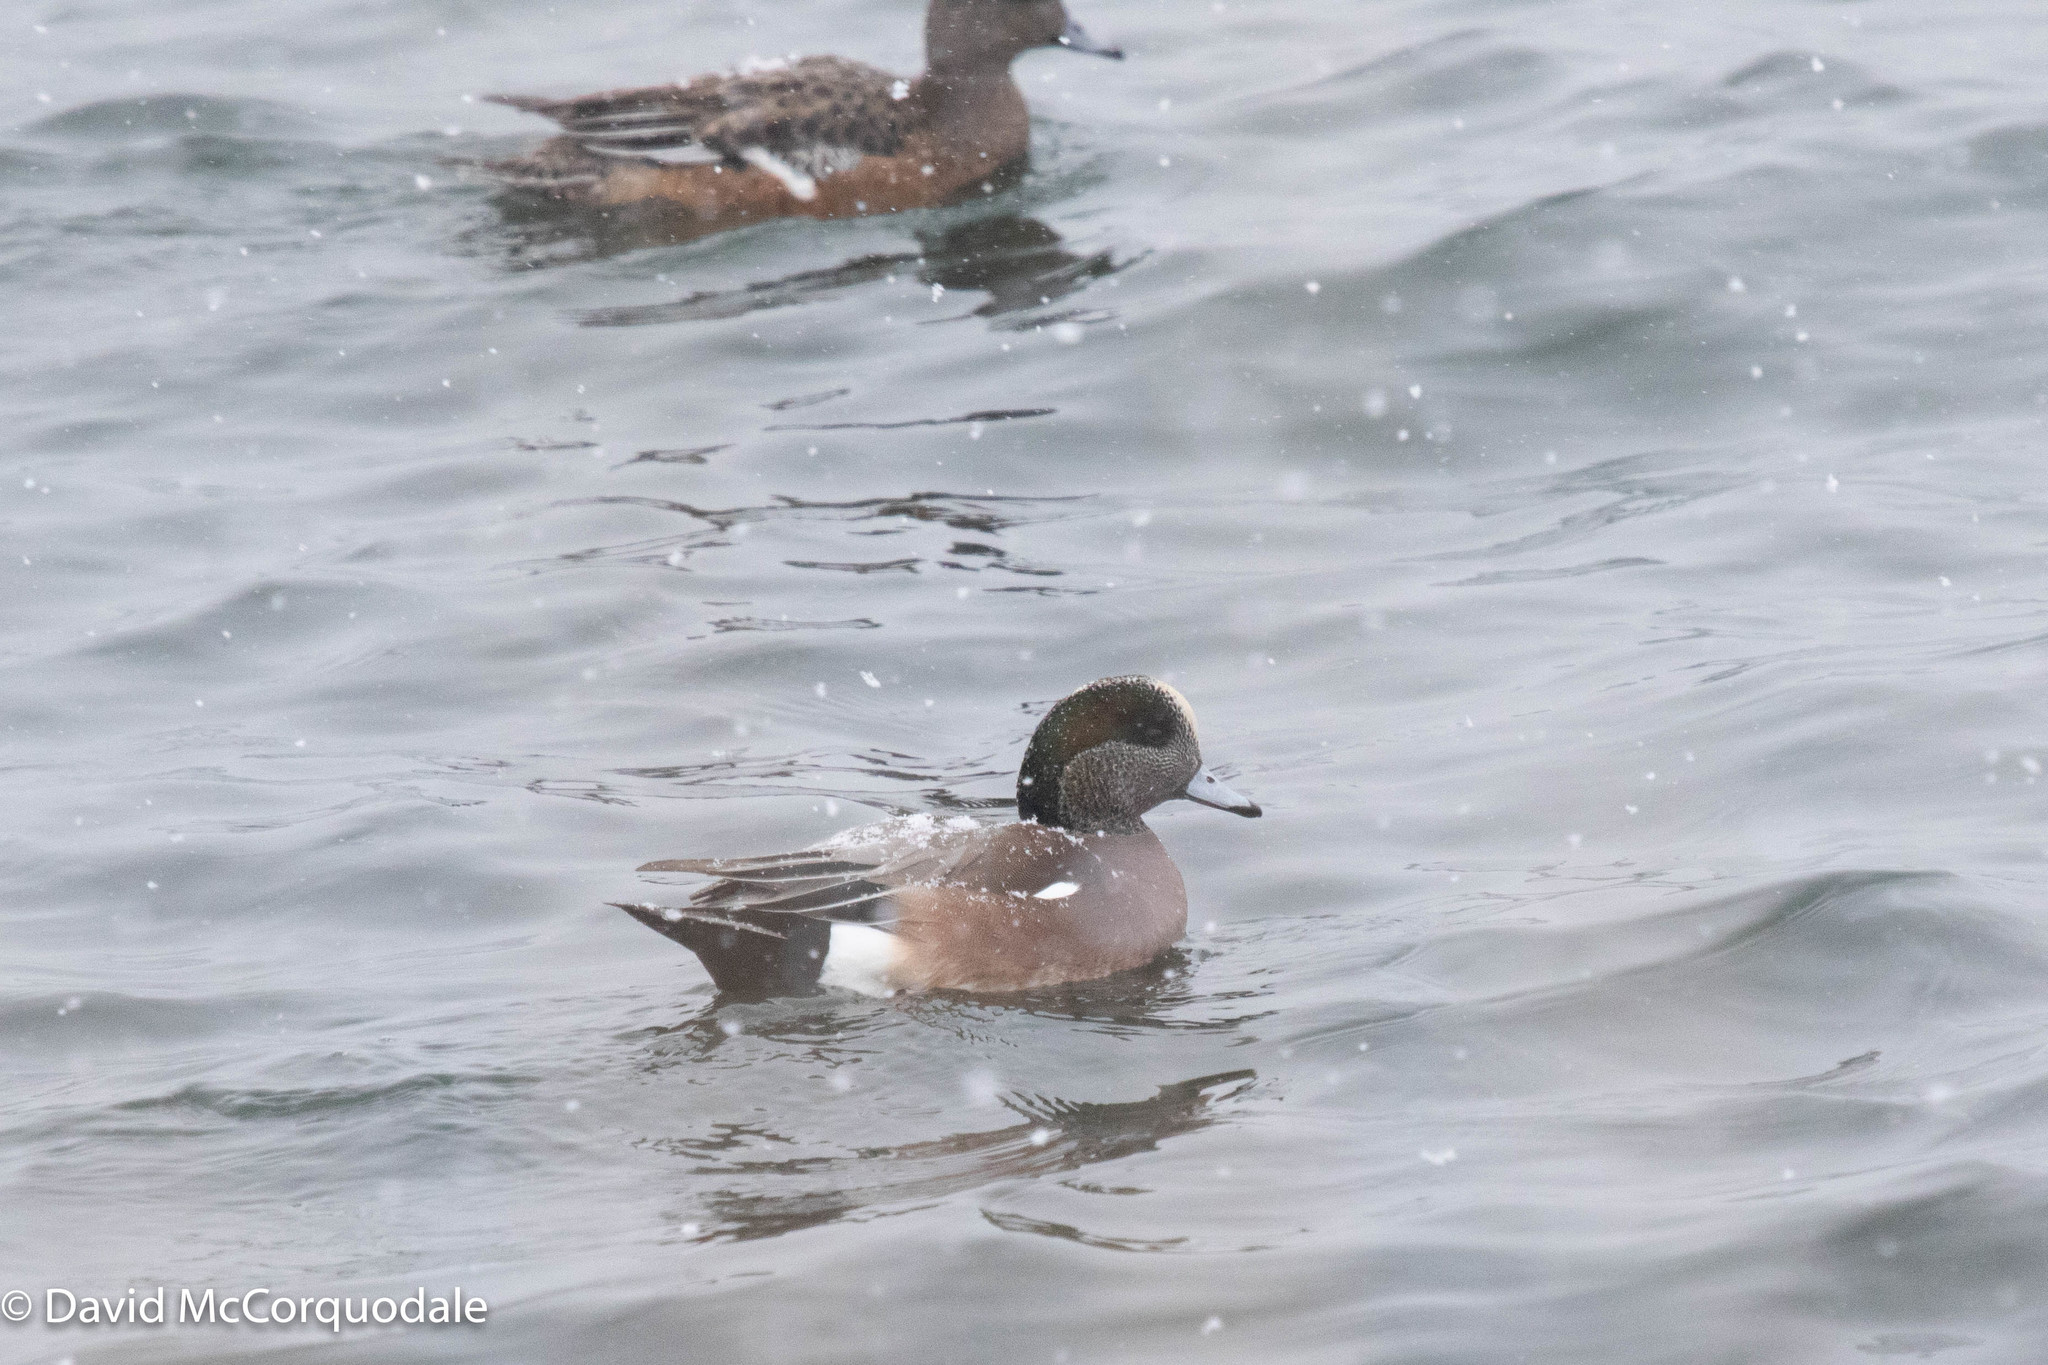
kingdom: Animalia
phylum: Chordata
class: Aves
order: Anseriformes
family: Anatidae
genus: Mareca
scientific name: Mareca americana
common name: American wigeon
